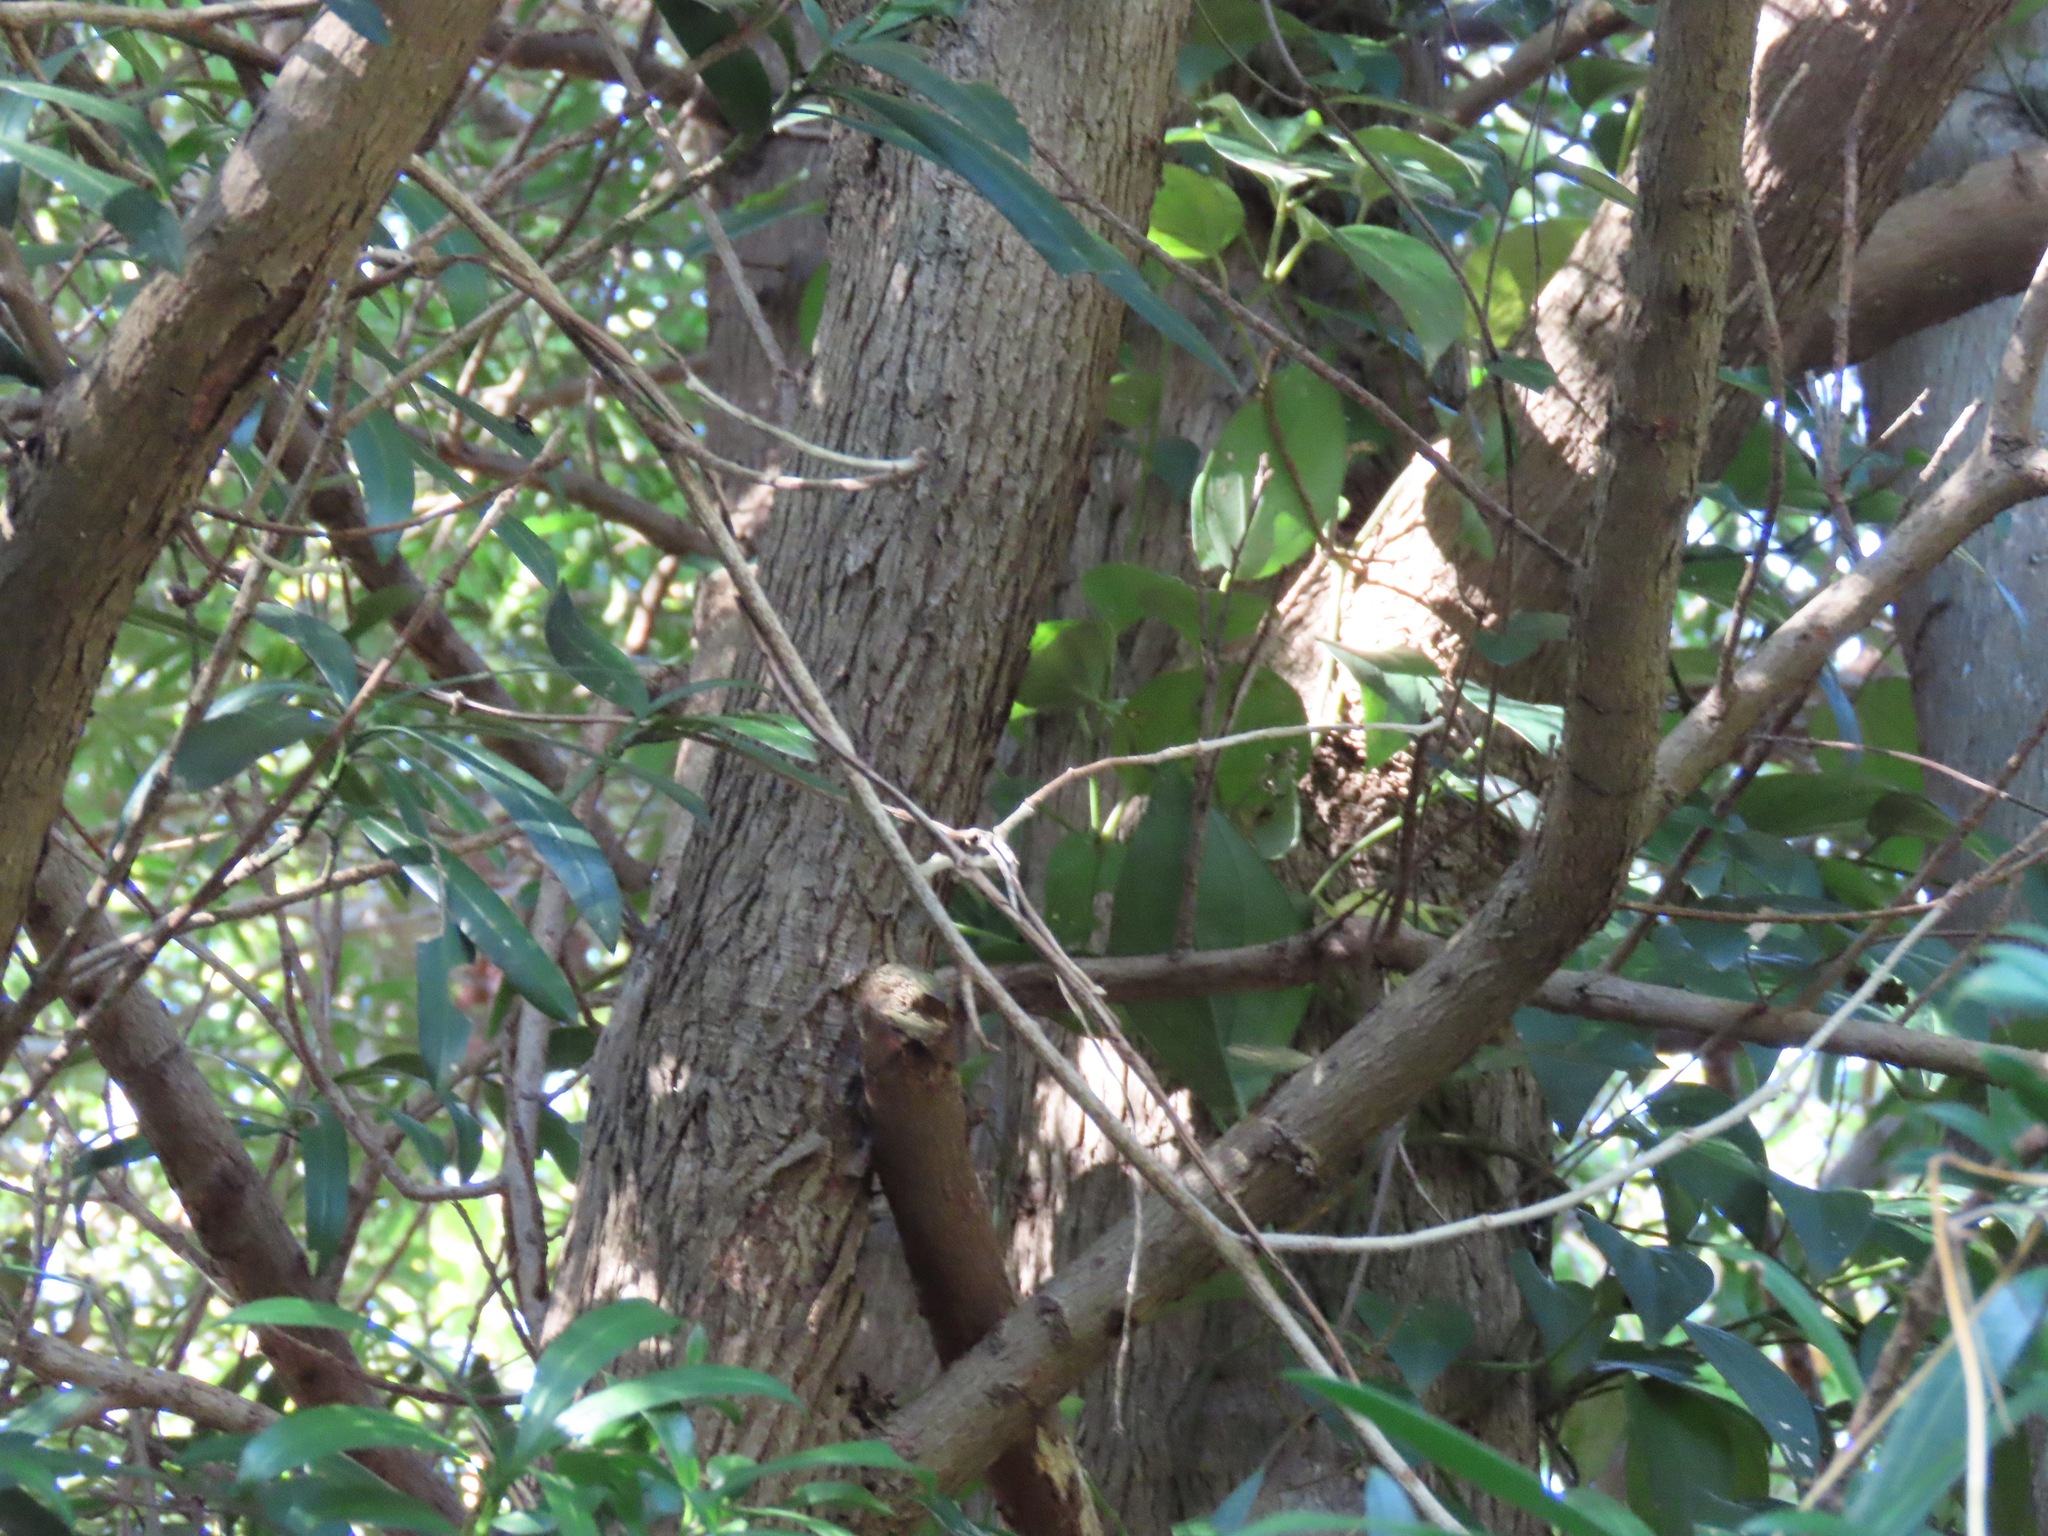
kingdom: Plantae
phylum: Tracheophyta
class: Pinopsida
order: Pinales
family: Podocarpaceae
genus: Podocarpus
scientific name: Podocarpus macrophyllus
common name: Japanese yew
